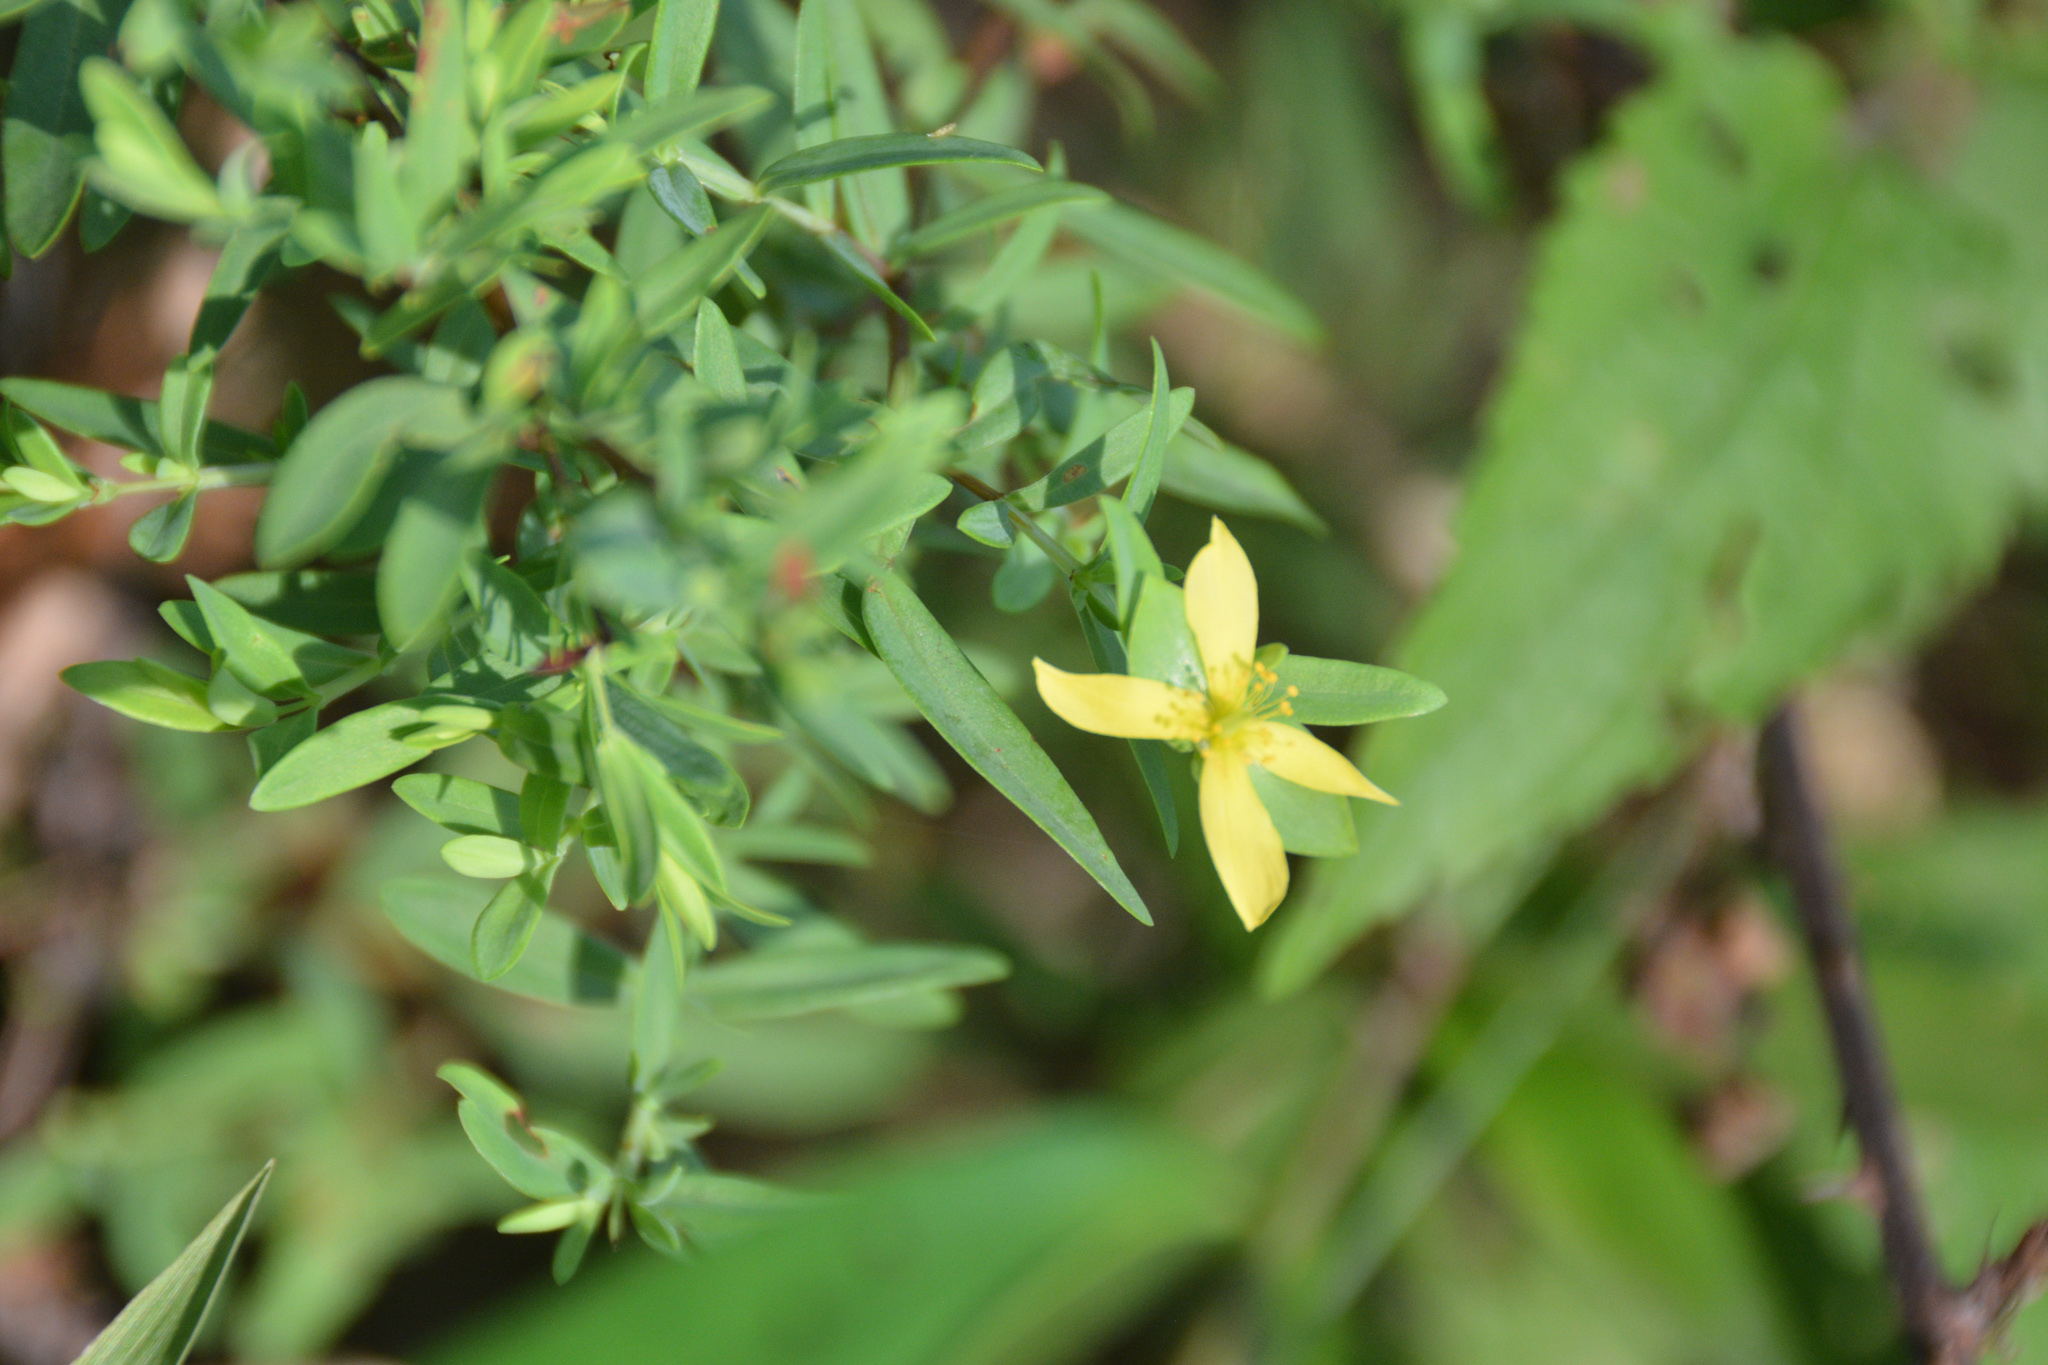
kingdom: Plantae
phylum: Tracheophyta
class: Magnoliopsida
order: Malpighiales
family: Hypericaceae
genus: Hypericum
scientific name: Hypericum hypericoides
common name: St. andrew's cross
